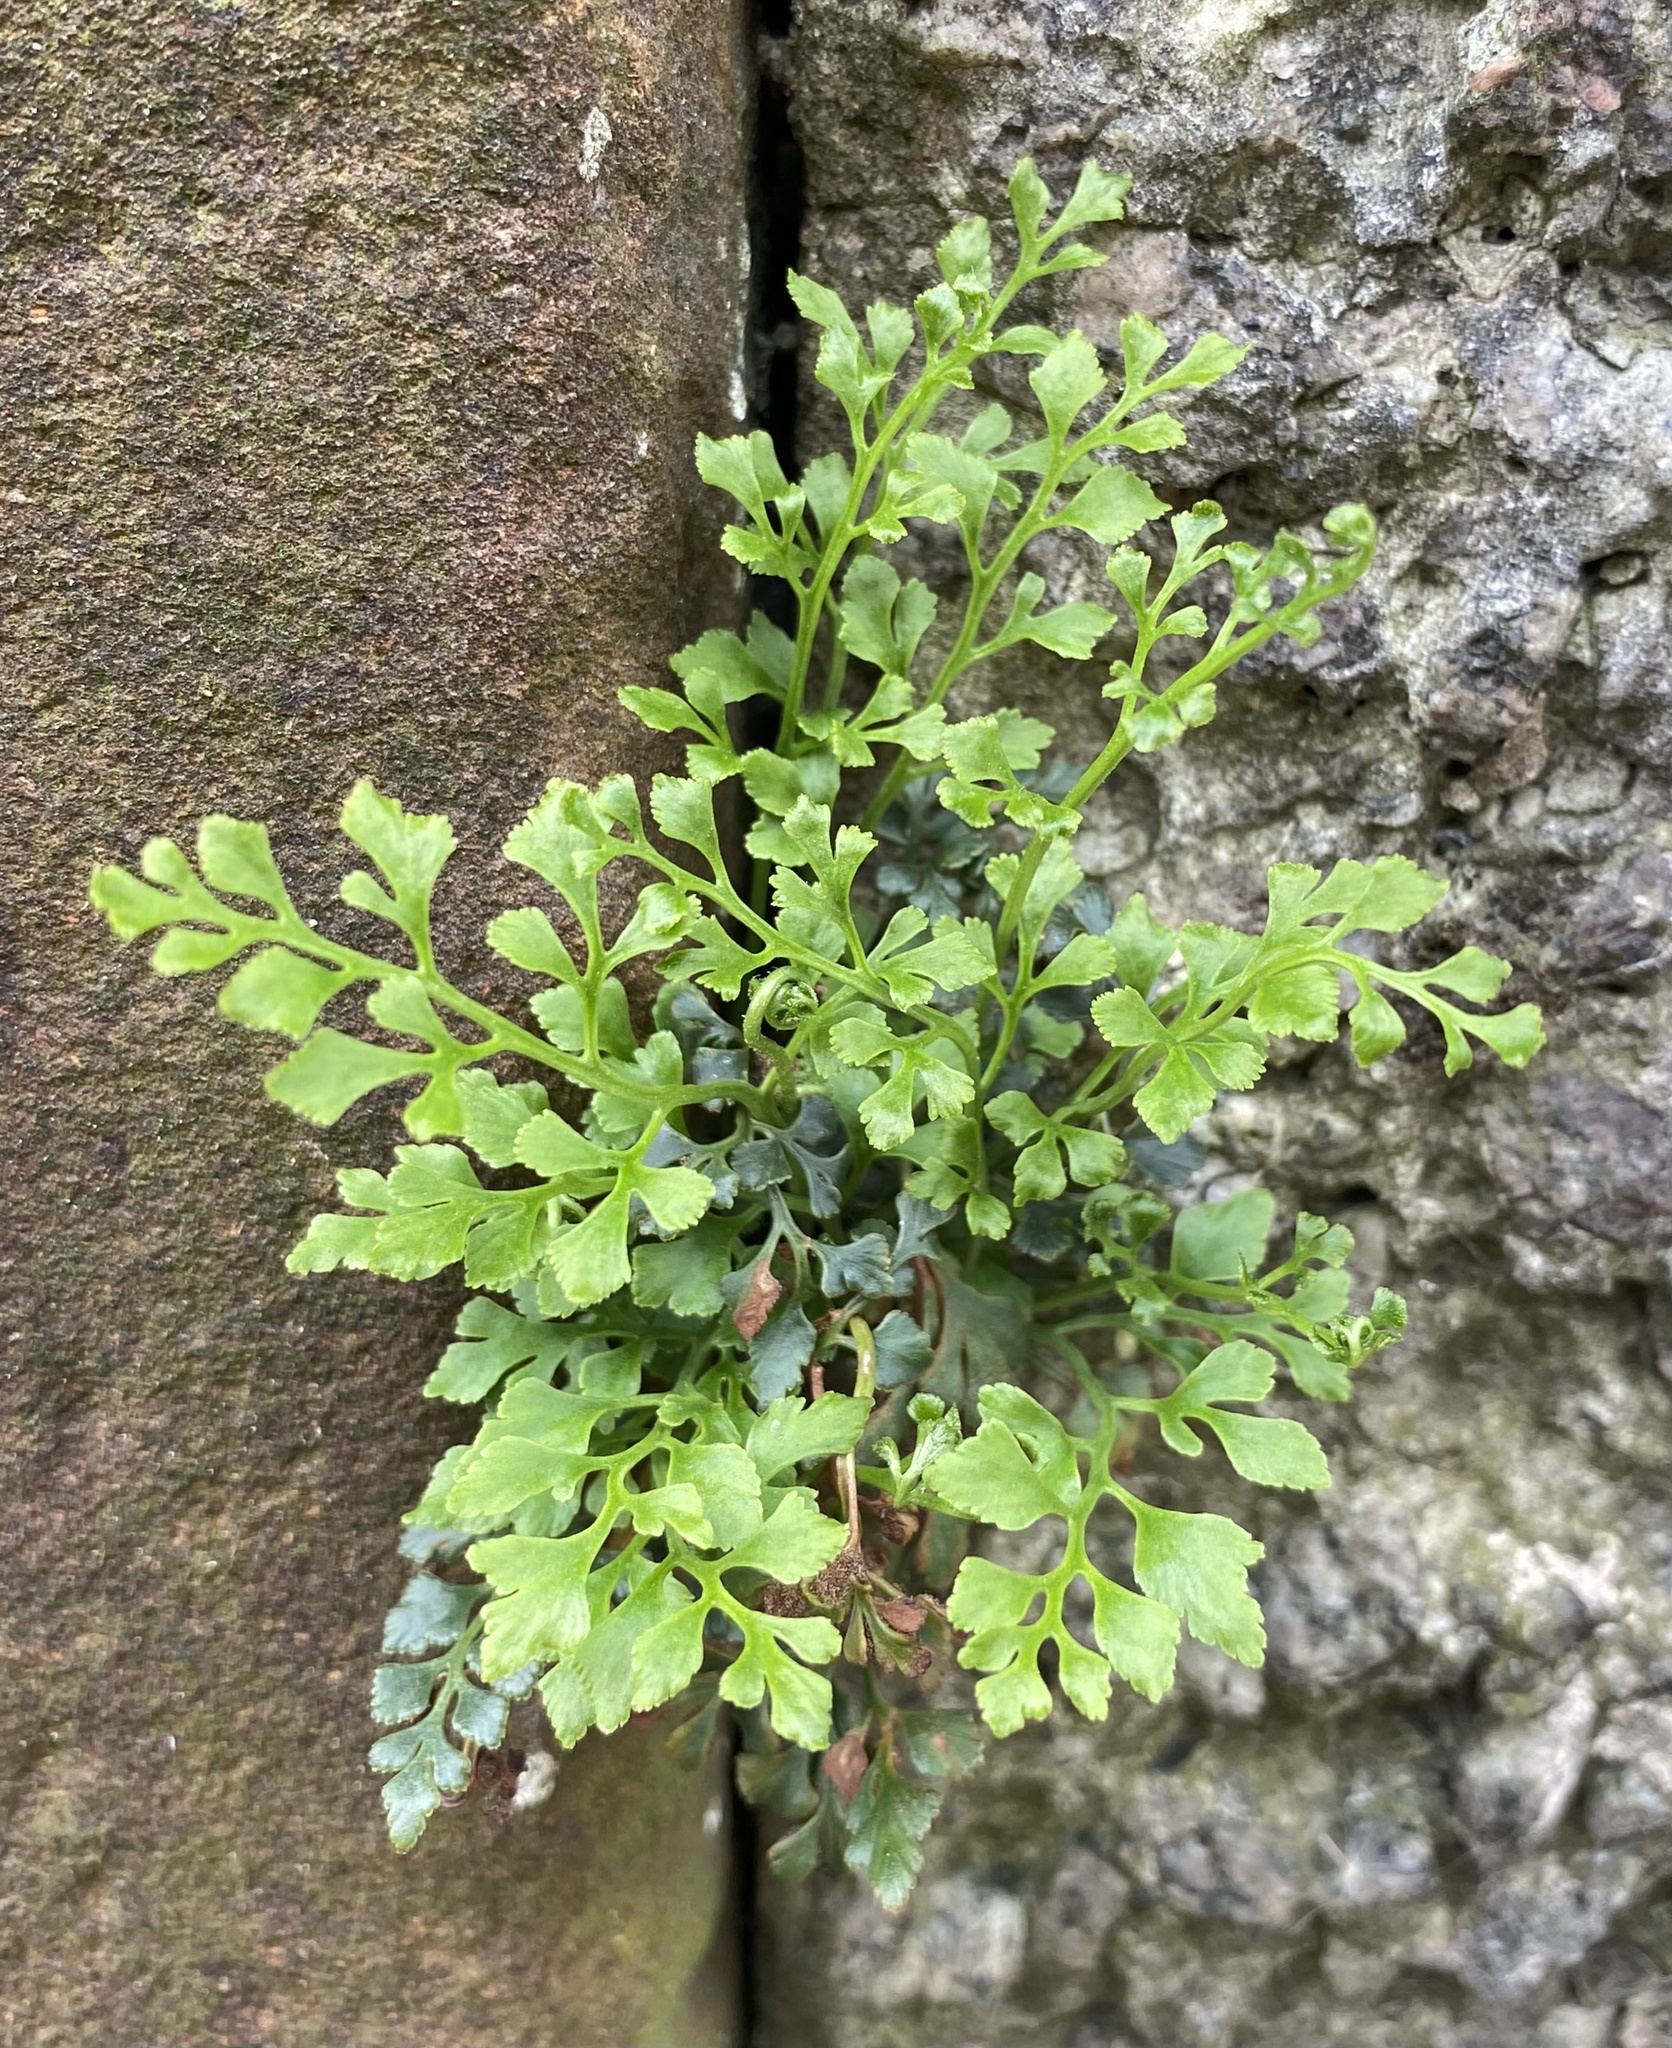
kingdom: Plantae
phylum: Tracheophyta
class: Polypodiopsida
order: Polypodiales
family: Aspleniaceae
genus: Asplenium
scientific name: Asplenium ruta-muraria
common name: Wall-rue
